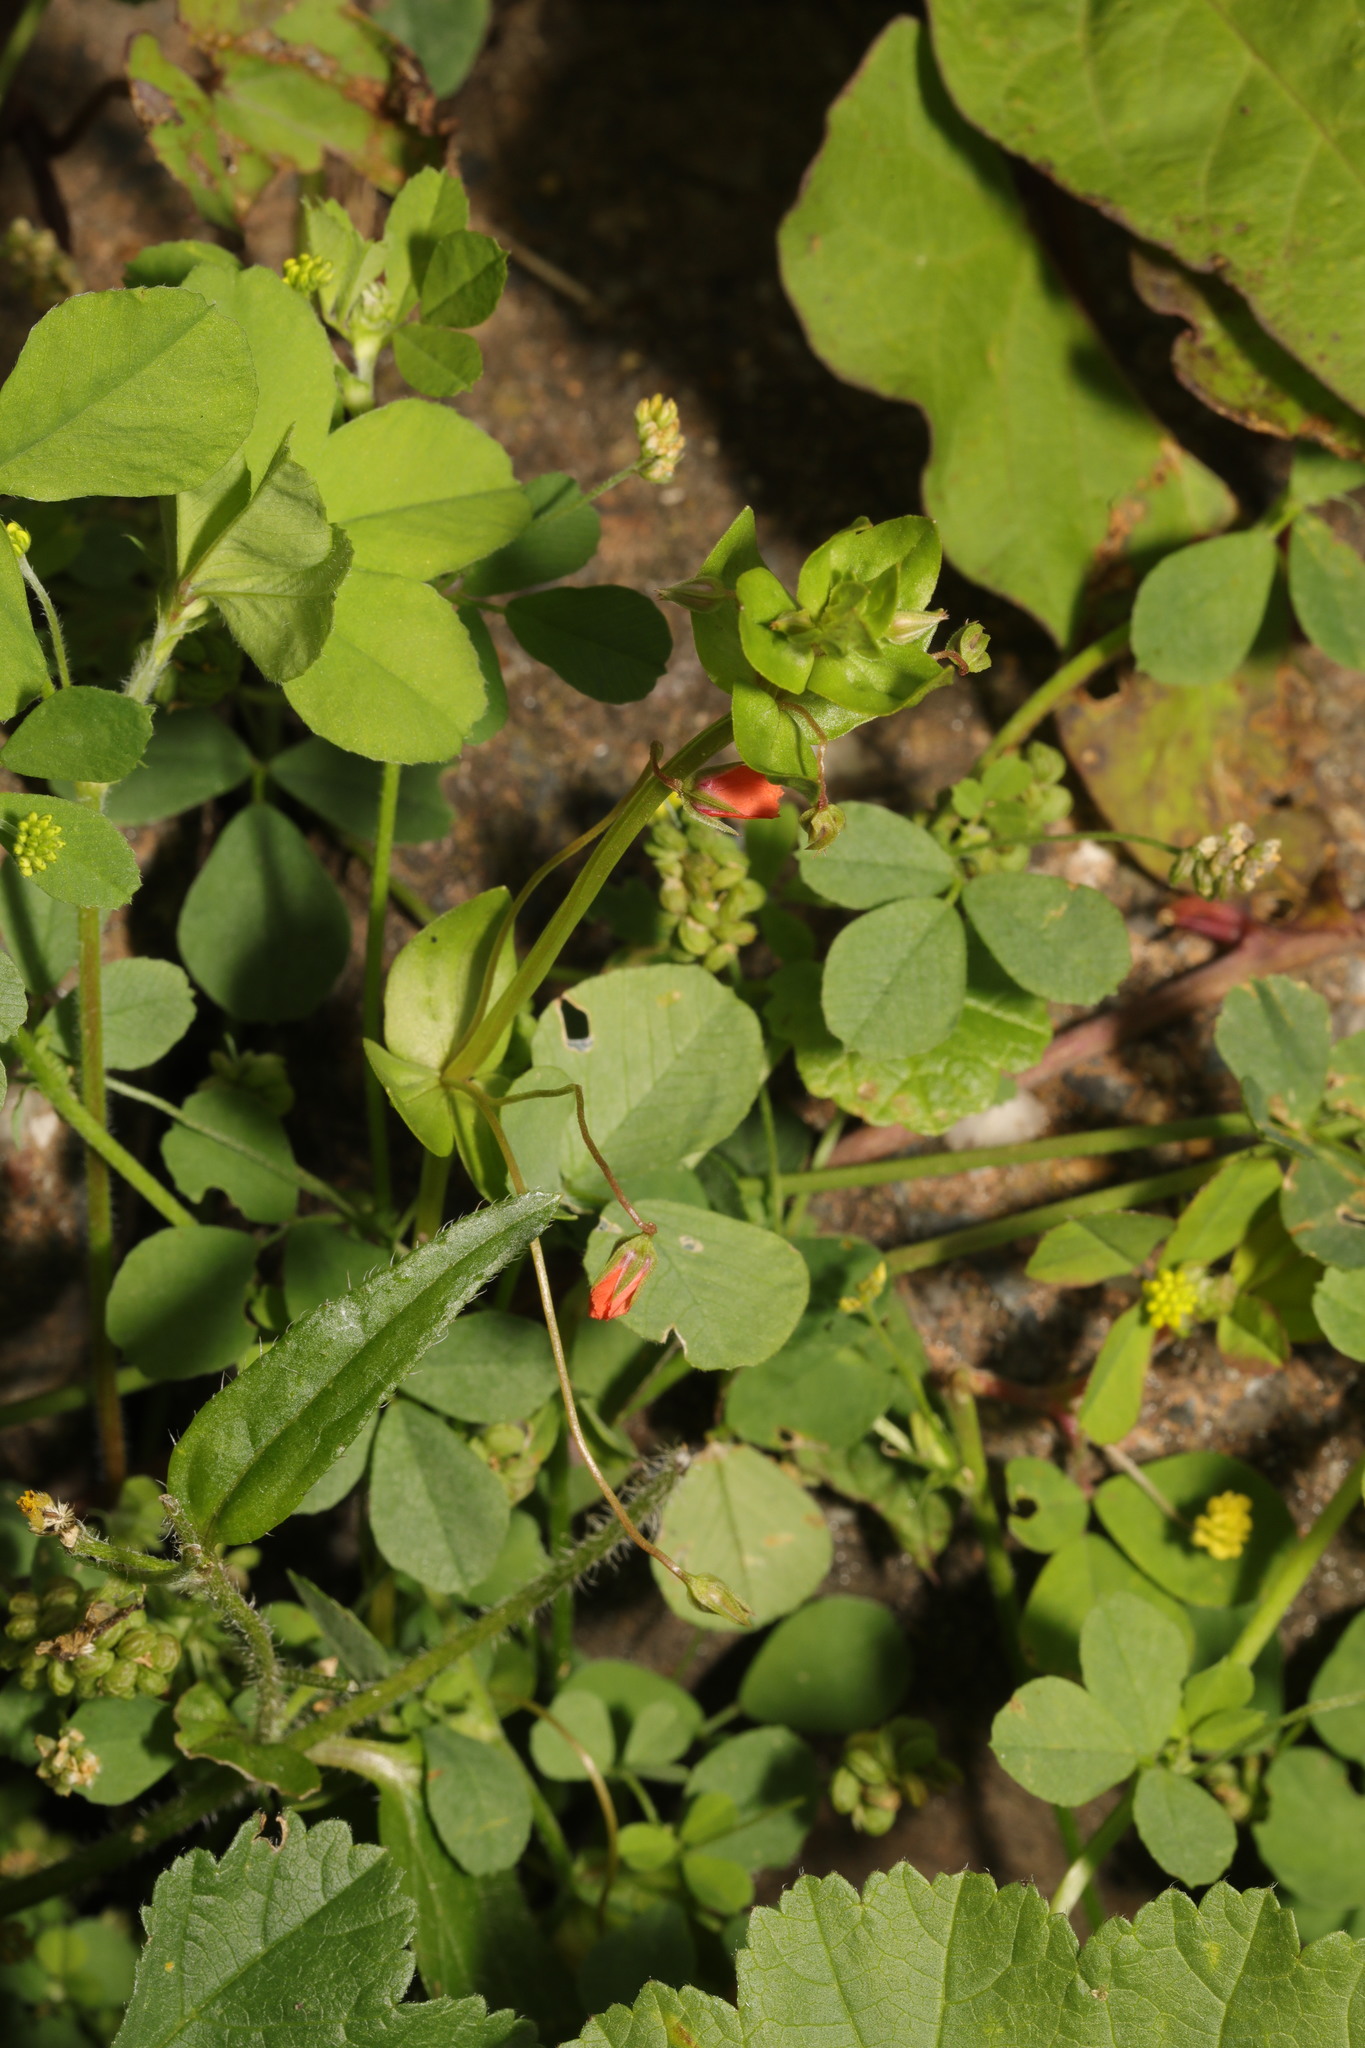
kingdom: Plantae
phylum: Tracheophyta
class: Magnoliopsida
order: Ericales
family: Primulaceae
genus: Lysimachia
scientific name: Lysimachia arvensis
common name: Scarlet pimpernel
